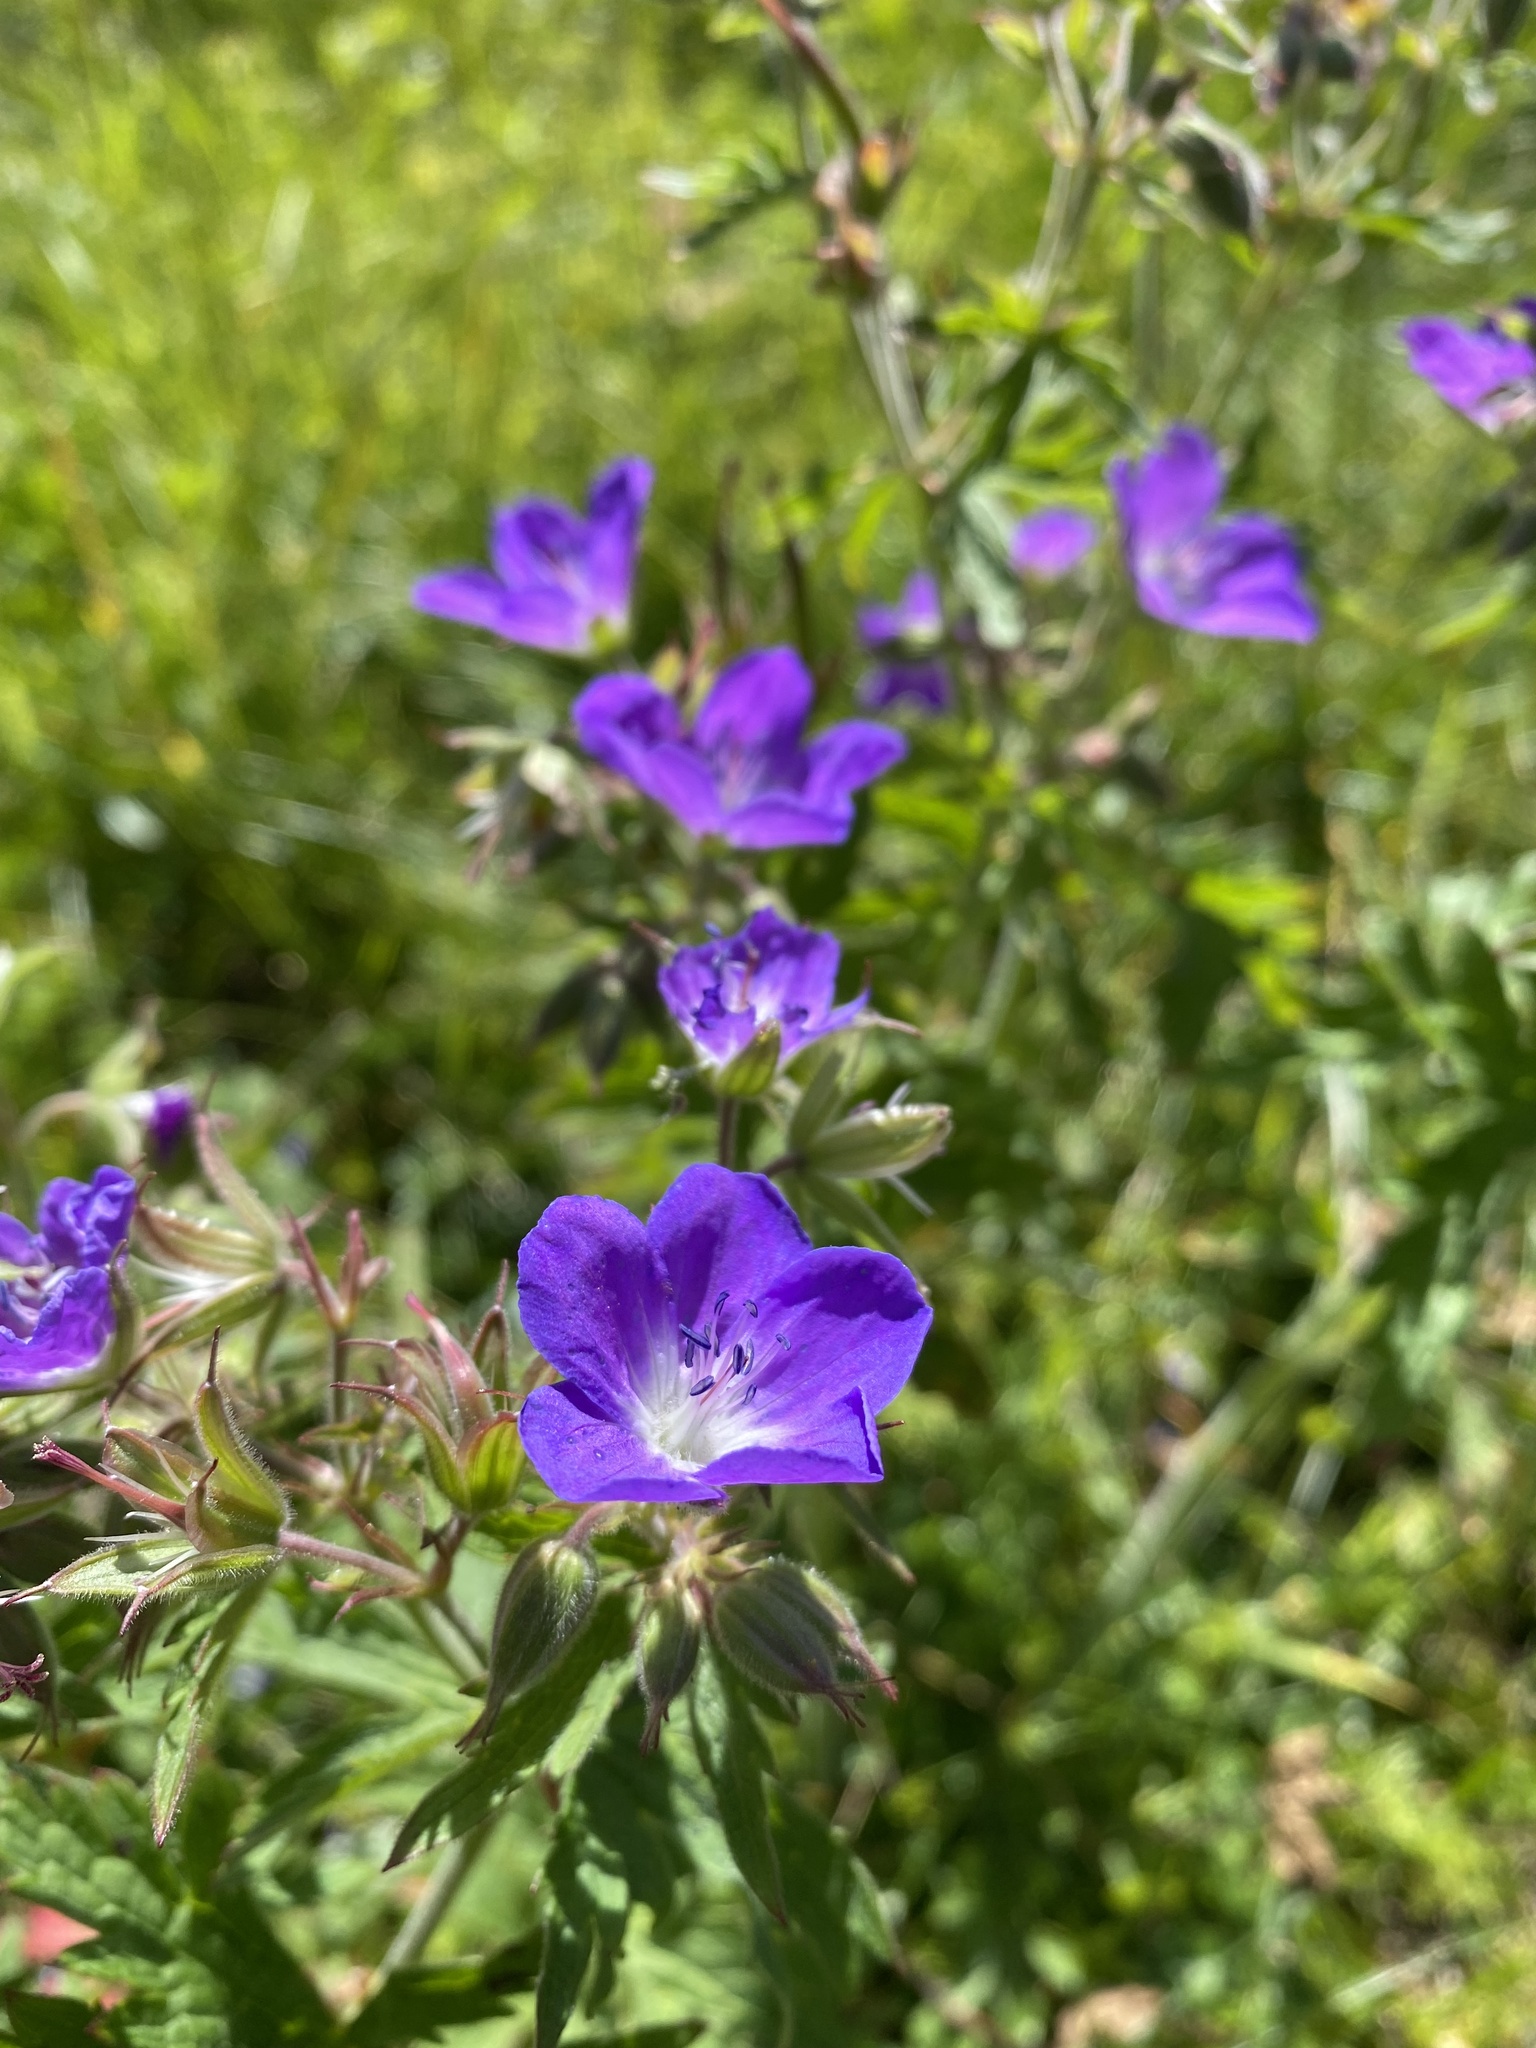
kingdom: Plantae
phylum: Tracheophyta
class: Magnoliopsida
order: Geraniales
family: Geraniaceae
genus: Geranium
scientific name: Geranium sylvaticum
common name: Wood crane's-bill
